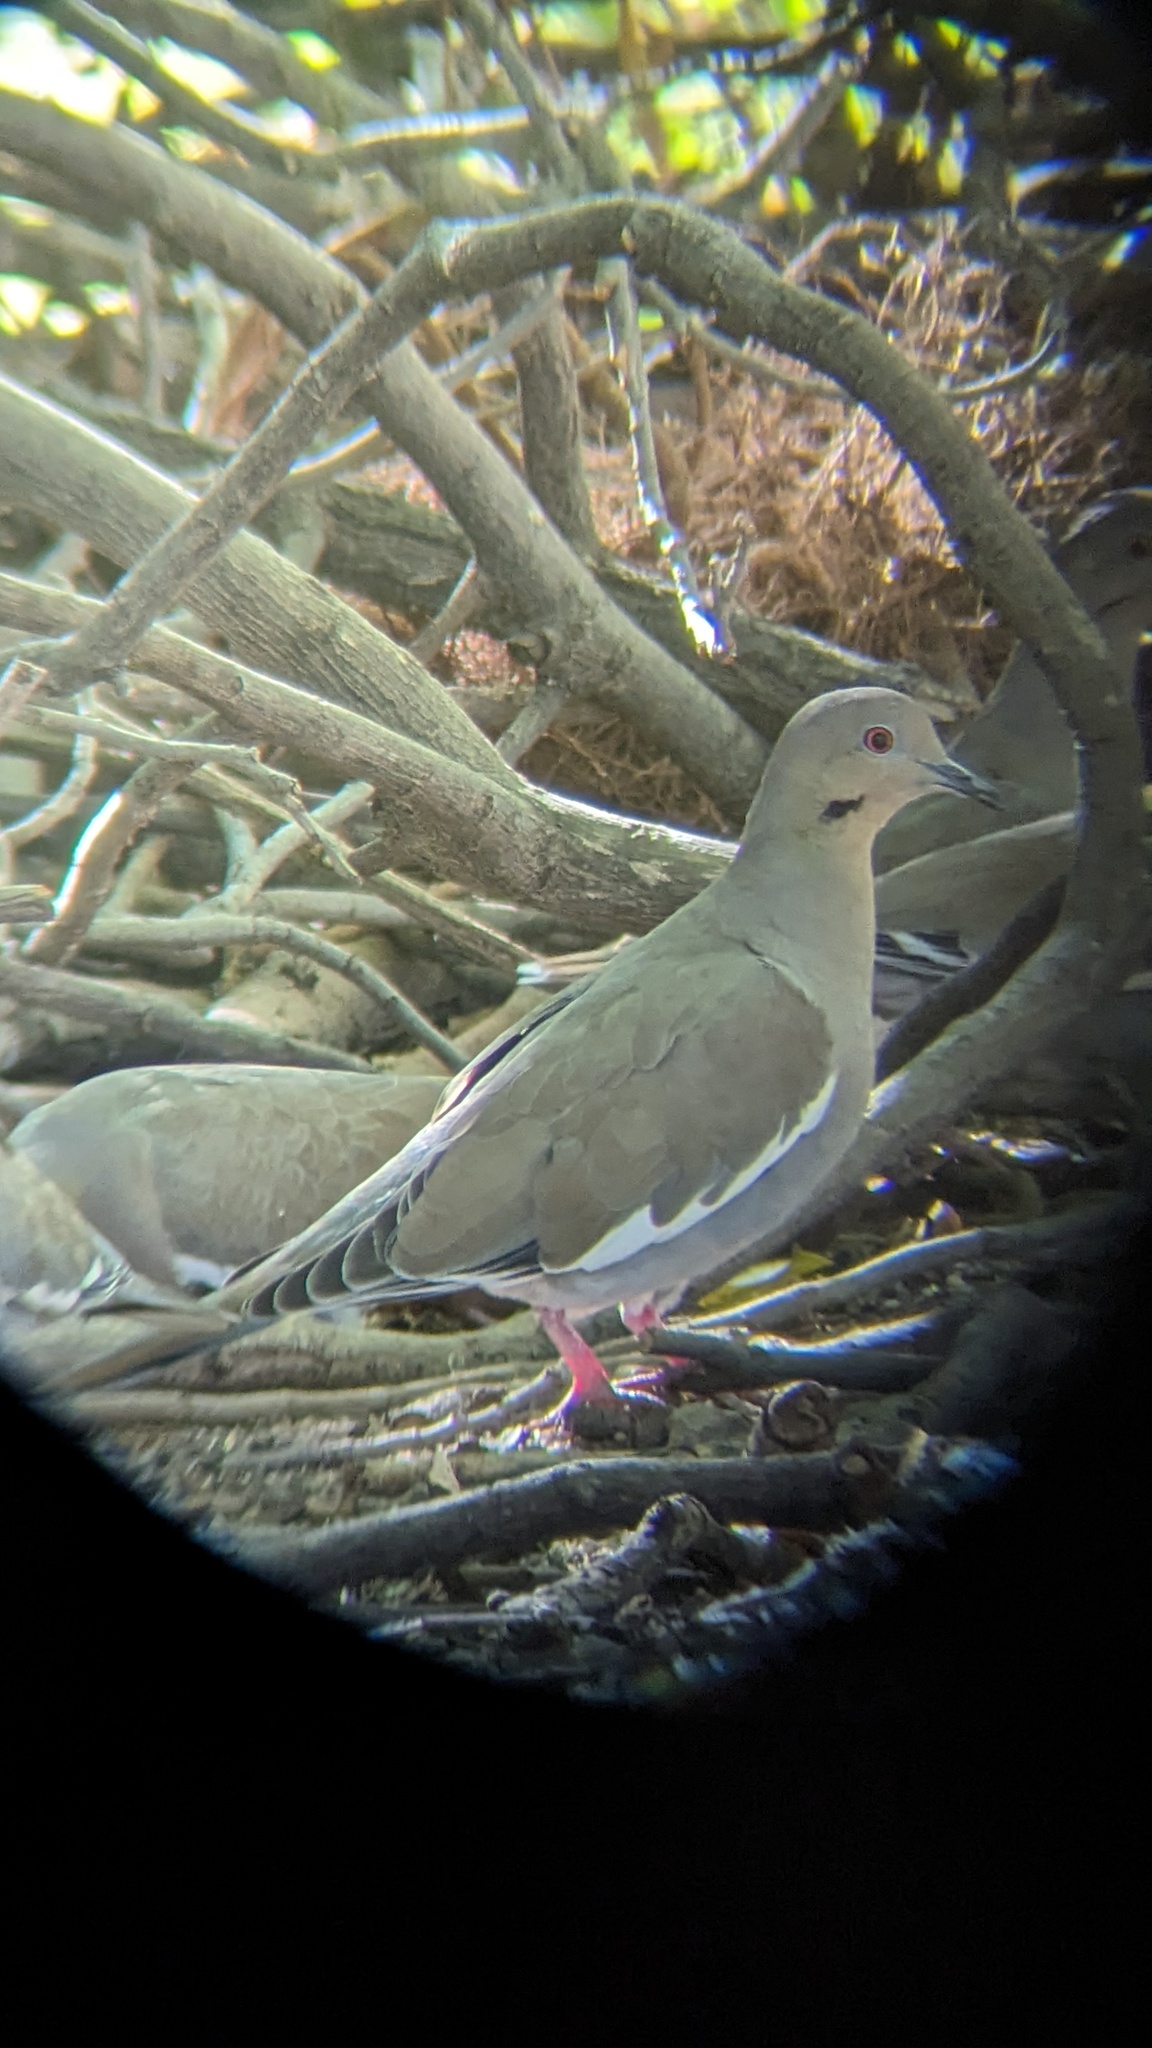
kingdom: Animalia
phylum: Chordata
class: Aves
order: Columbiformes
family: Columbidae
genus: Zenaida
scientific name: Zenaida asiatica
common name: White-winged dove
